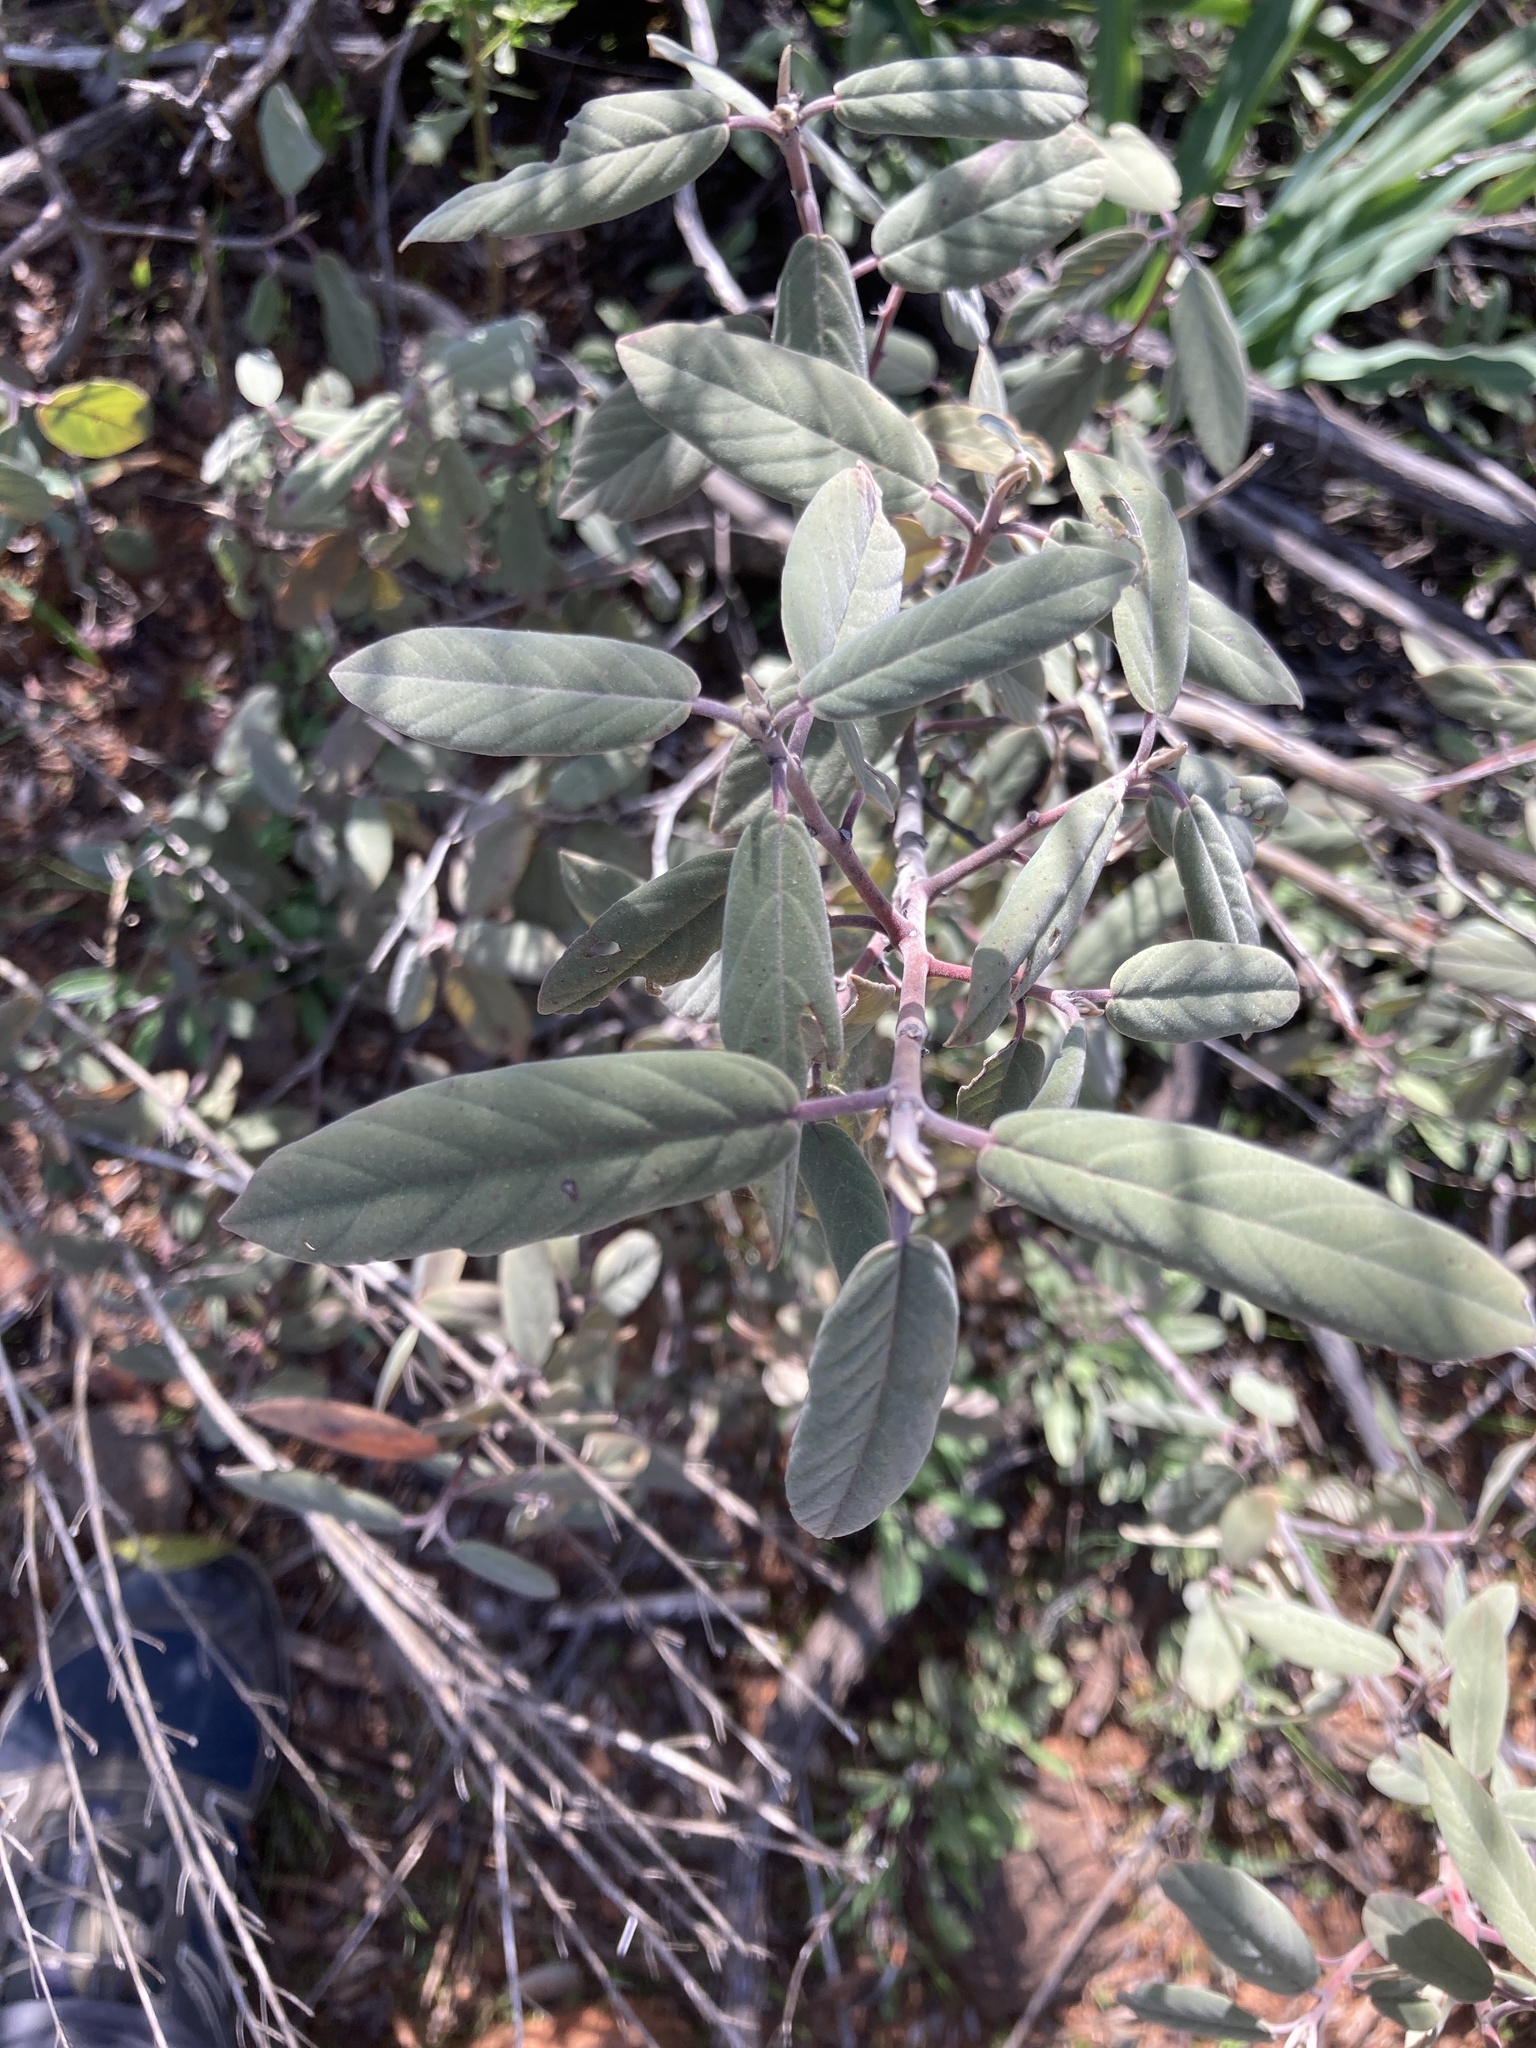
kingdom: Plantae
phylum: Tracheophyta
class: Magnoliopsida
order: Rosales
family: Rhamnaceae
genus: Frangula
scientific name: Frangula californica
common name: California buckthorn
